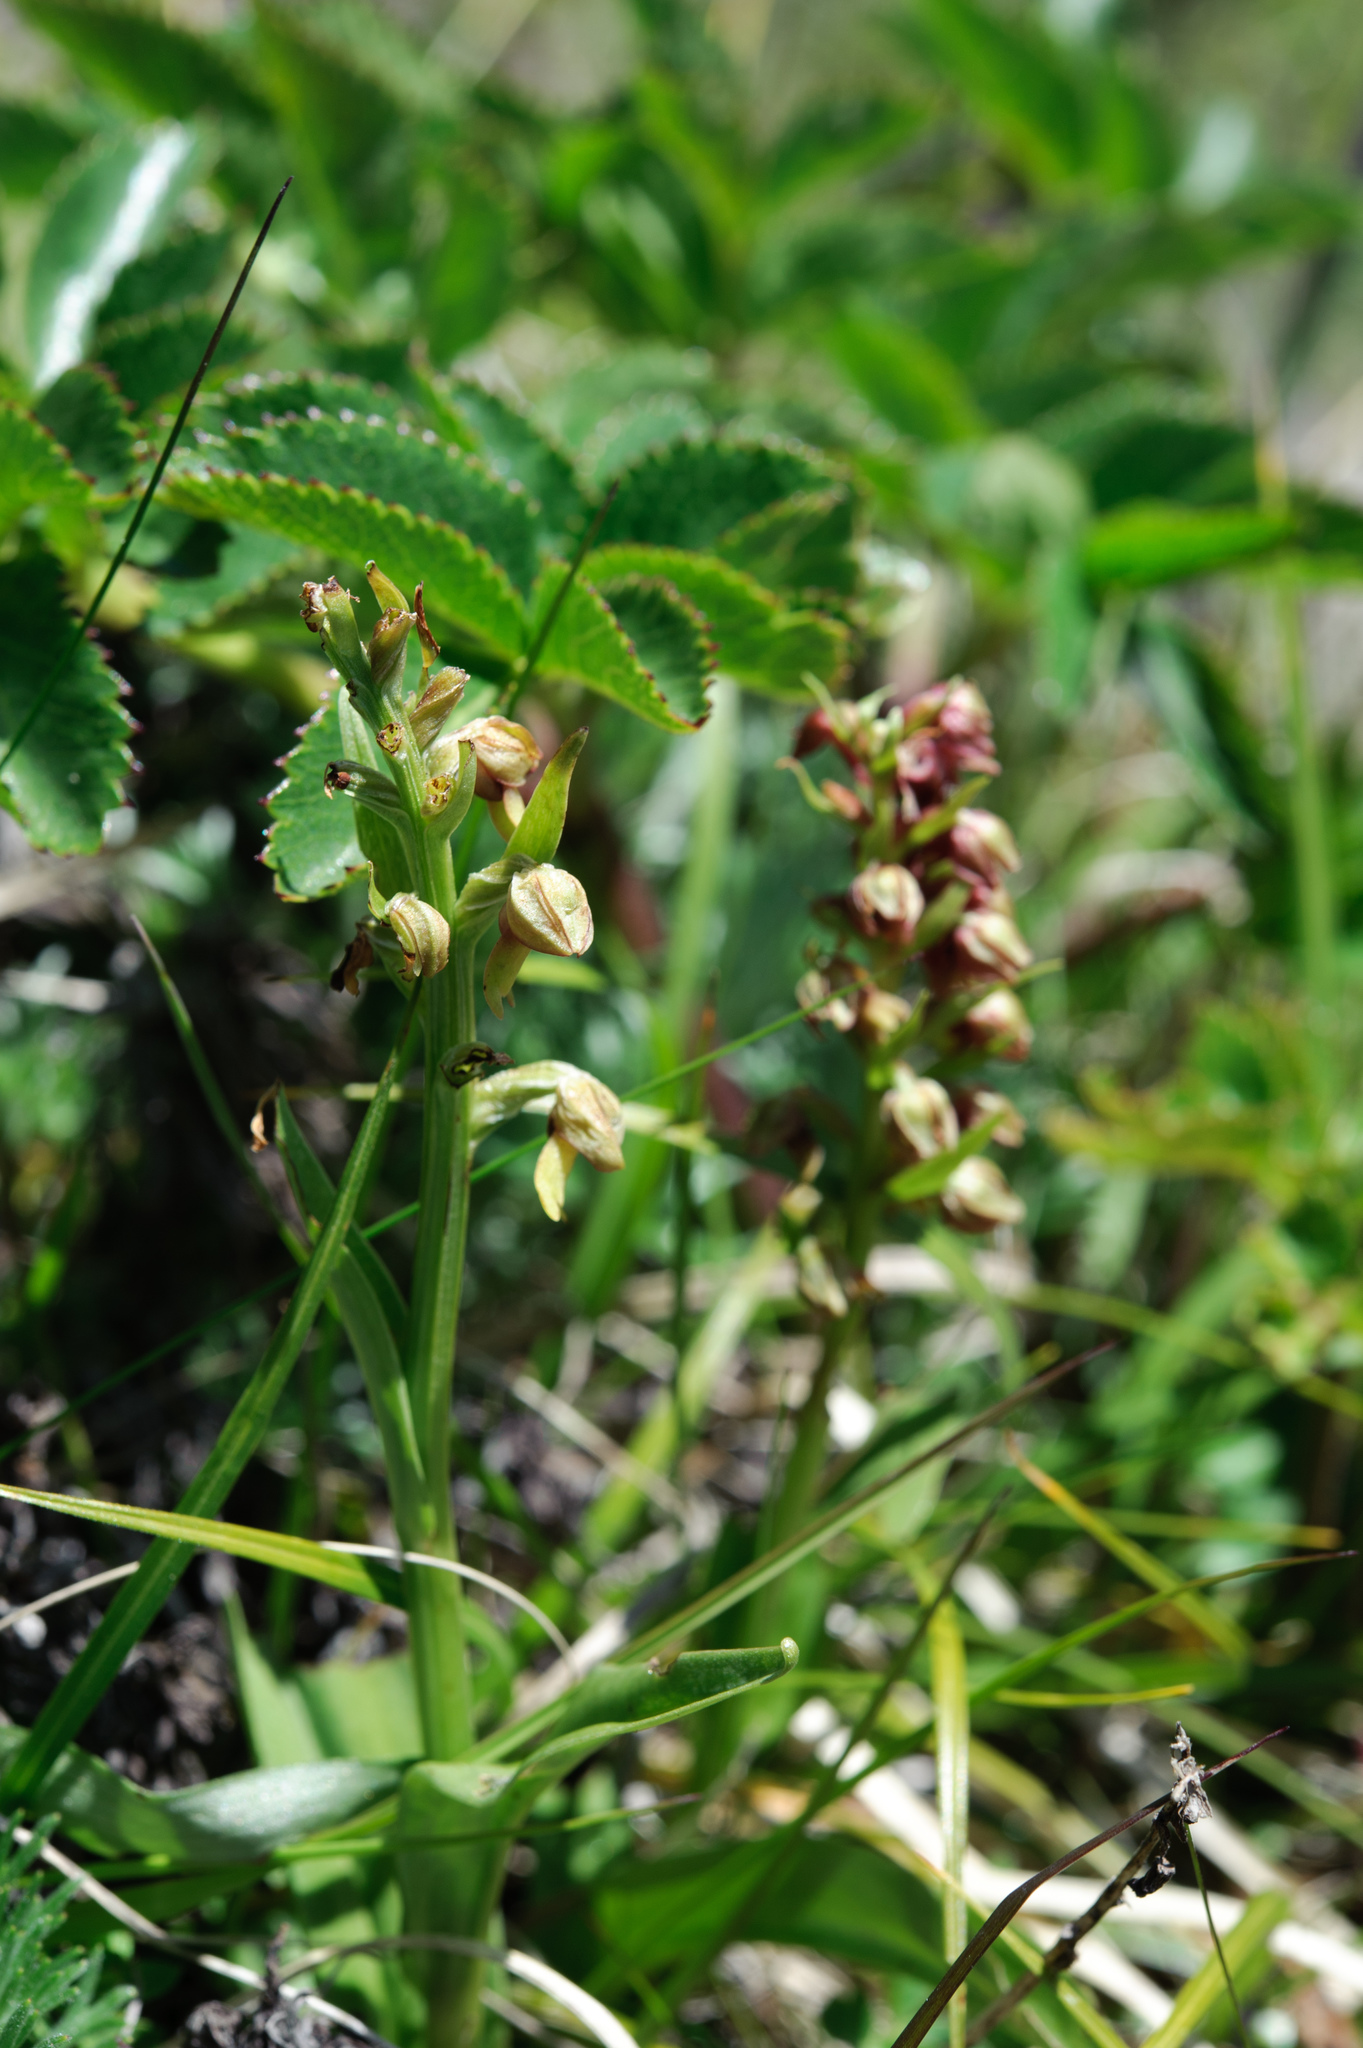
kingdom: Plantae
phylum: Tracheophyta
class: Liliopsida
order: Asparagales
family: Orchidaceae
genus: Dactylorhiza
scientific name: Dactylorhiza viridis
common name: Longbract frog orchid
